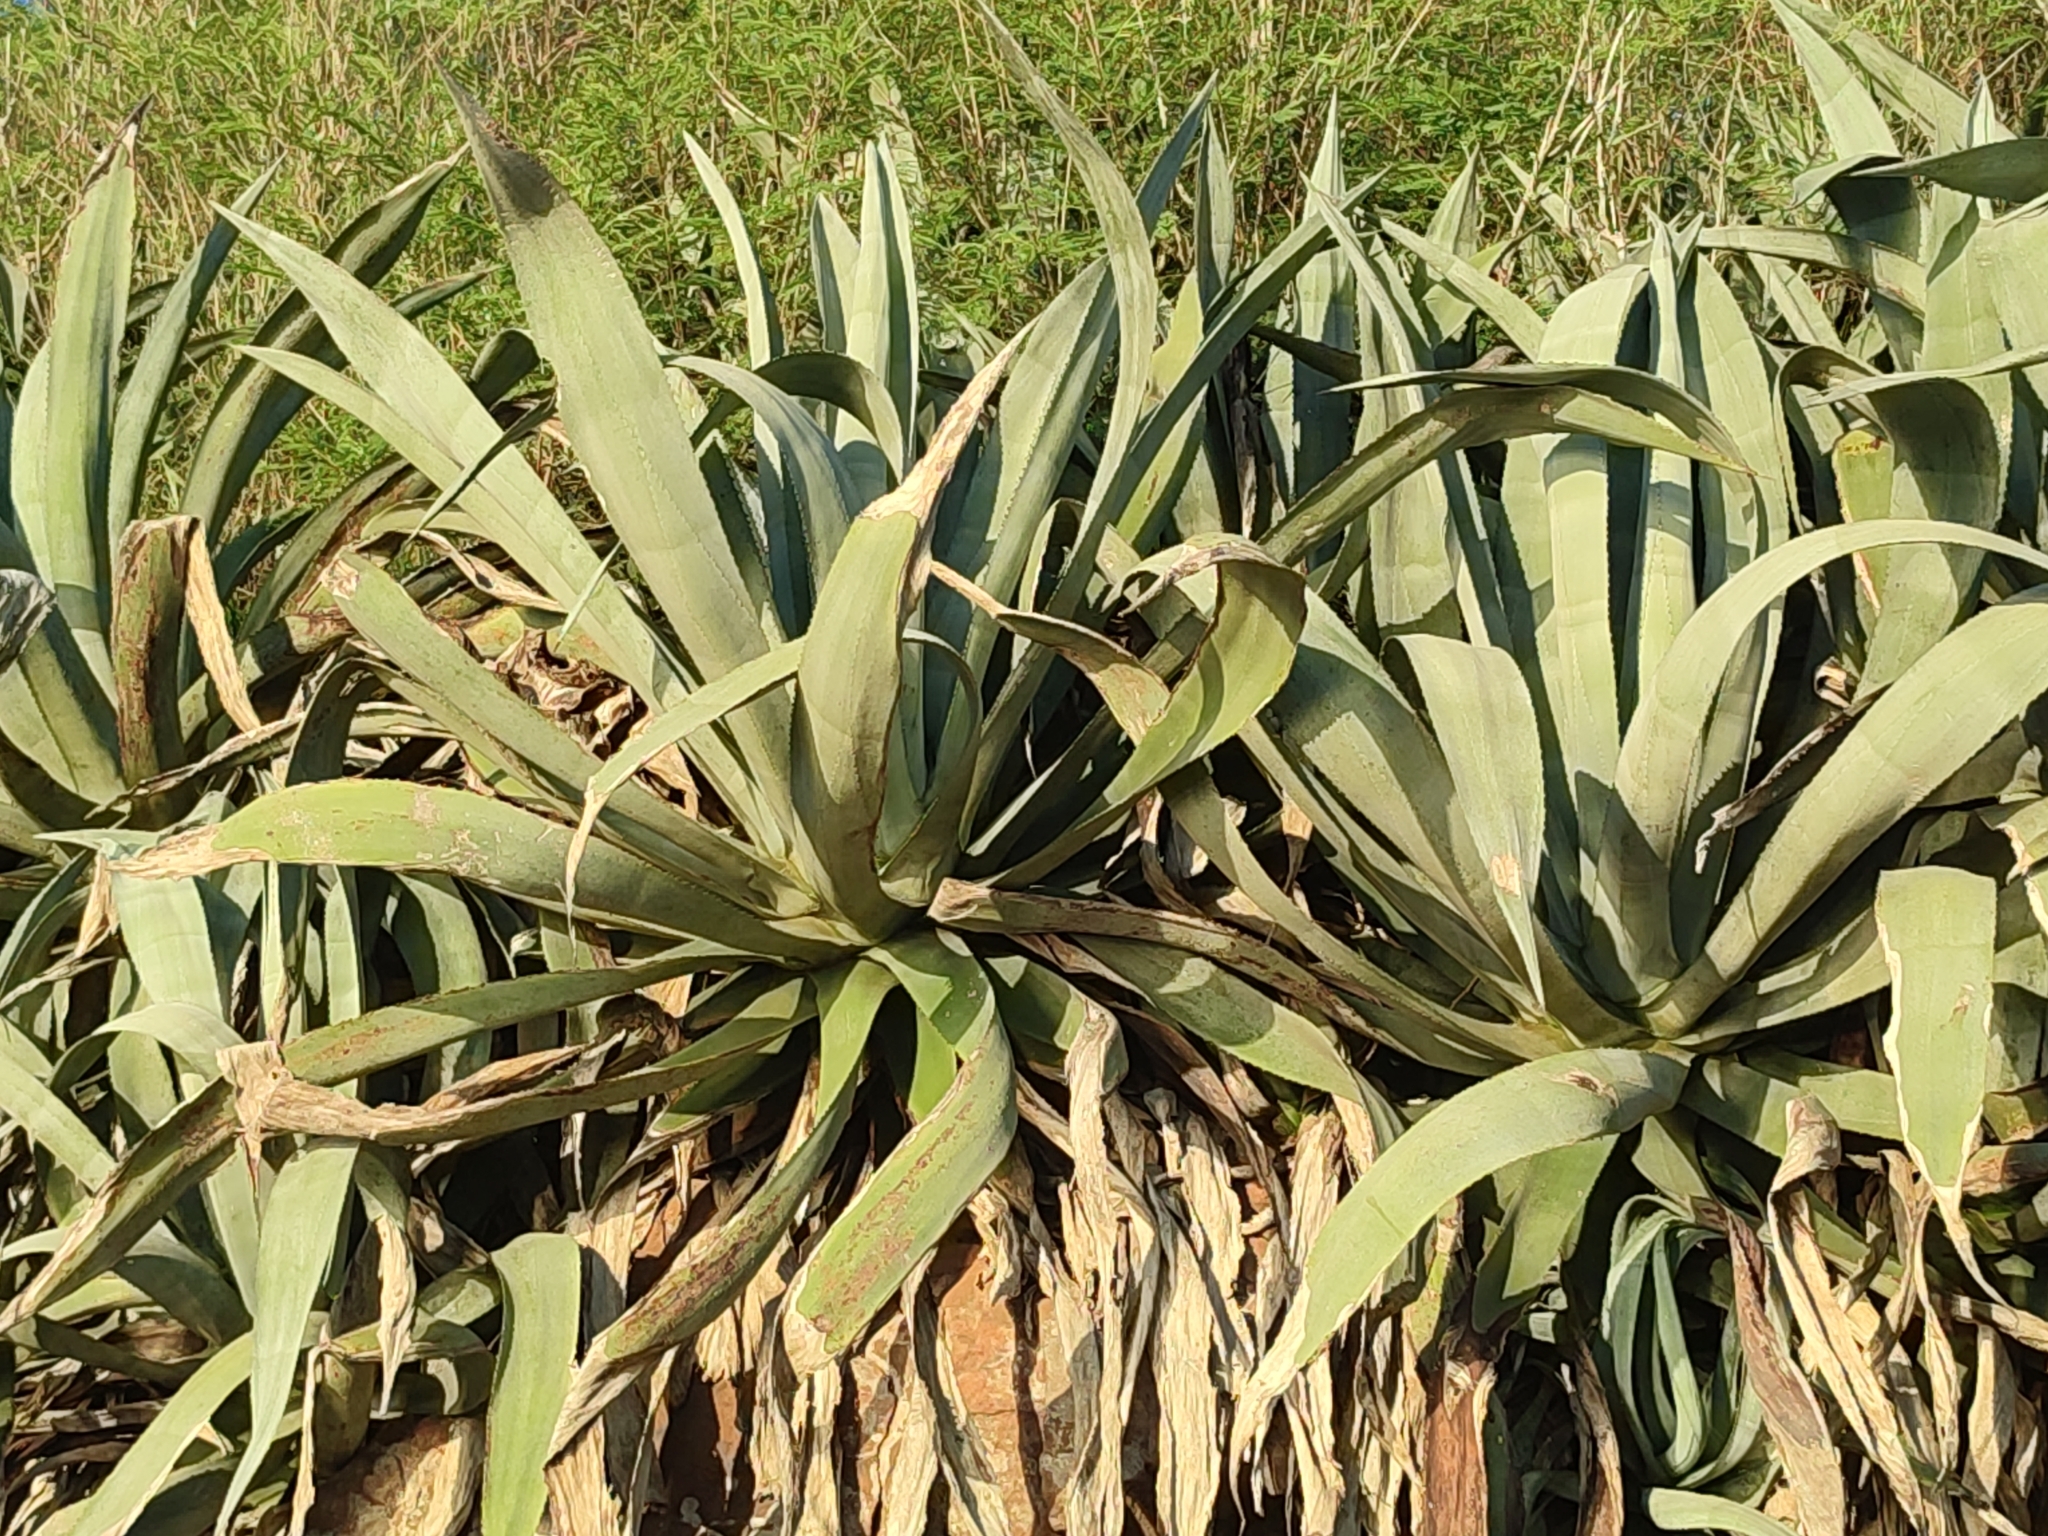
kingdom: Plantae
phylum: Tracheophyta
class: Liliopsida
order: Asparagales
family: Asparagaceae
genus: Agave
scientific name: Agave americana
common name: Centuryplant
